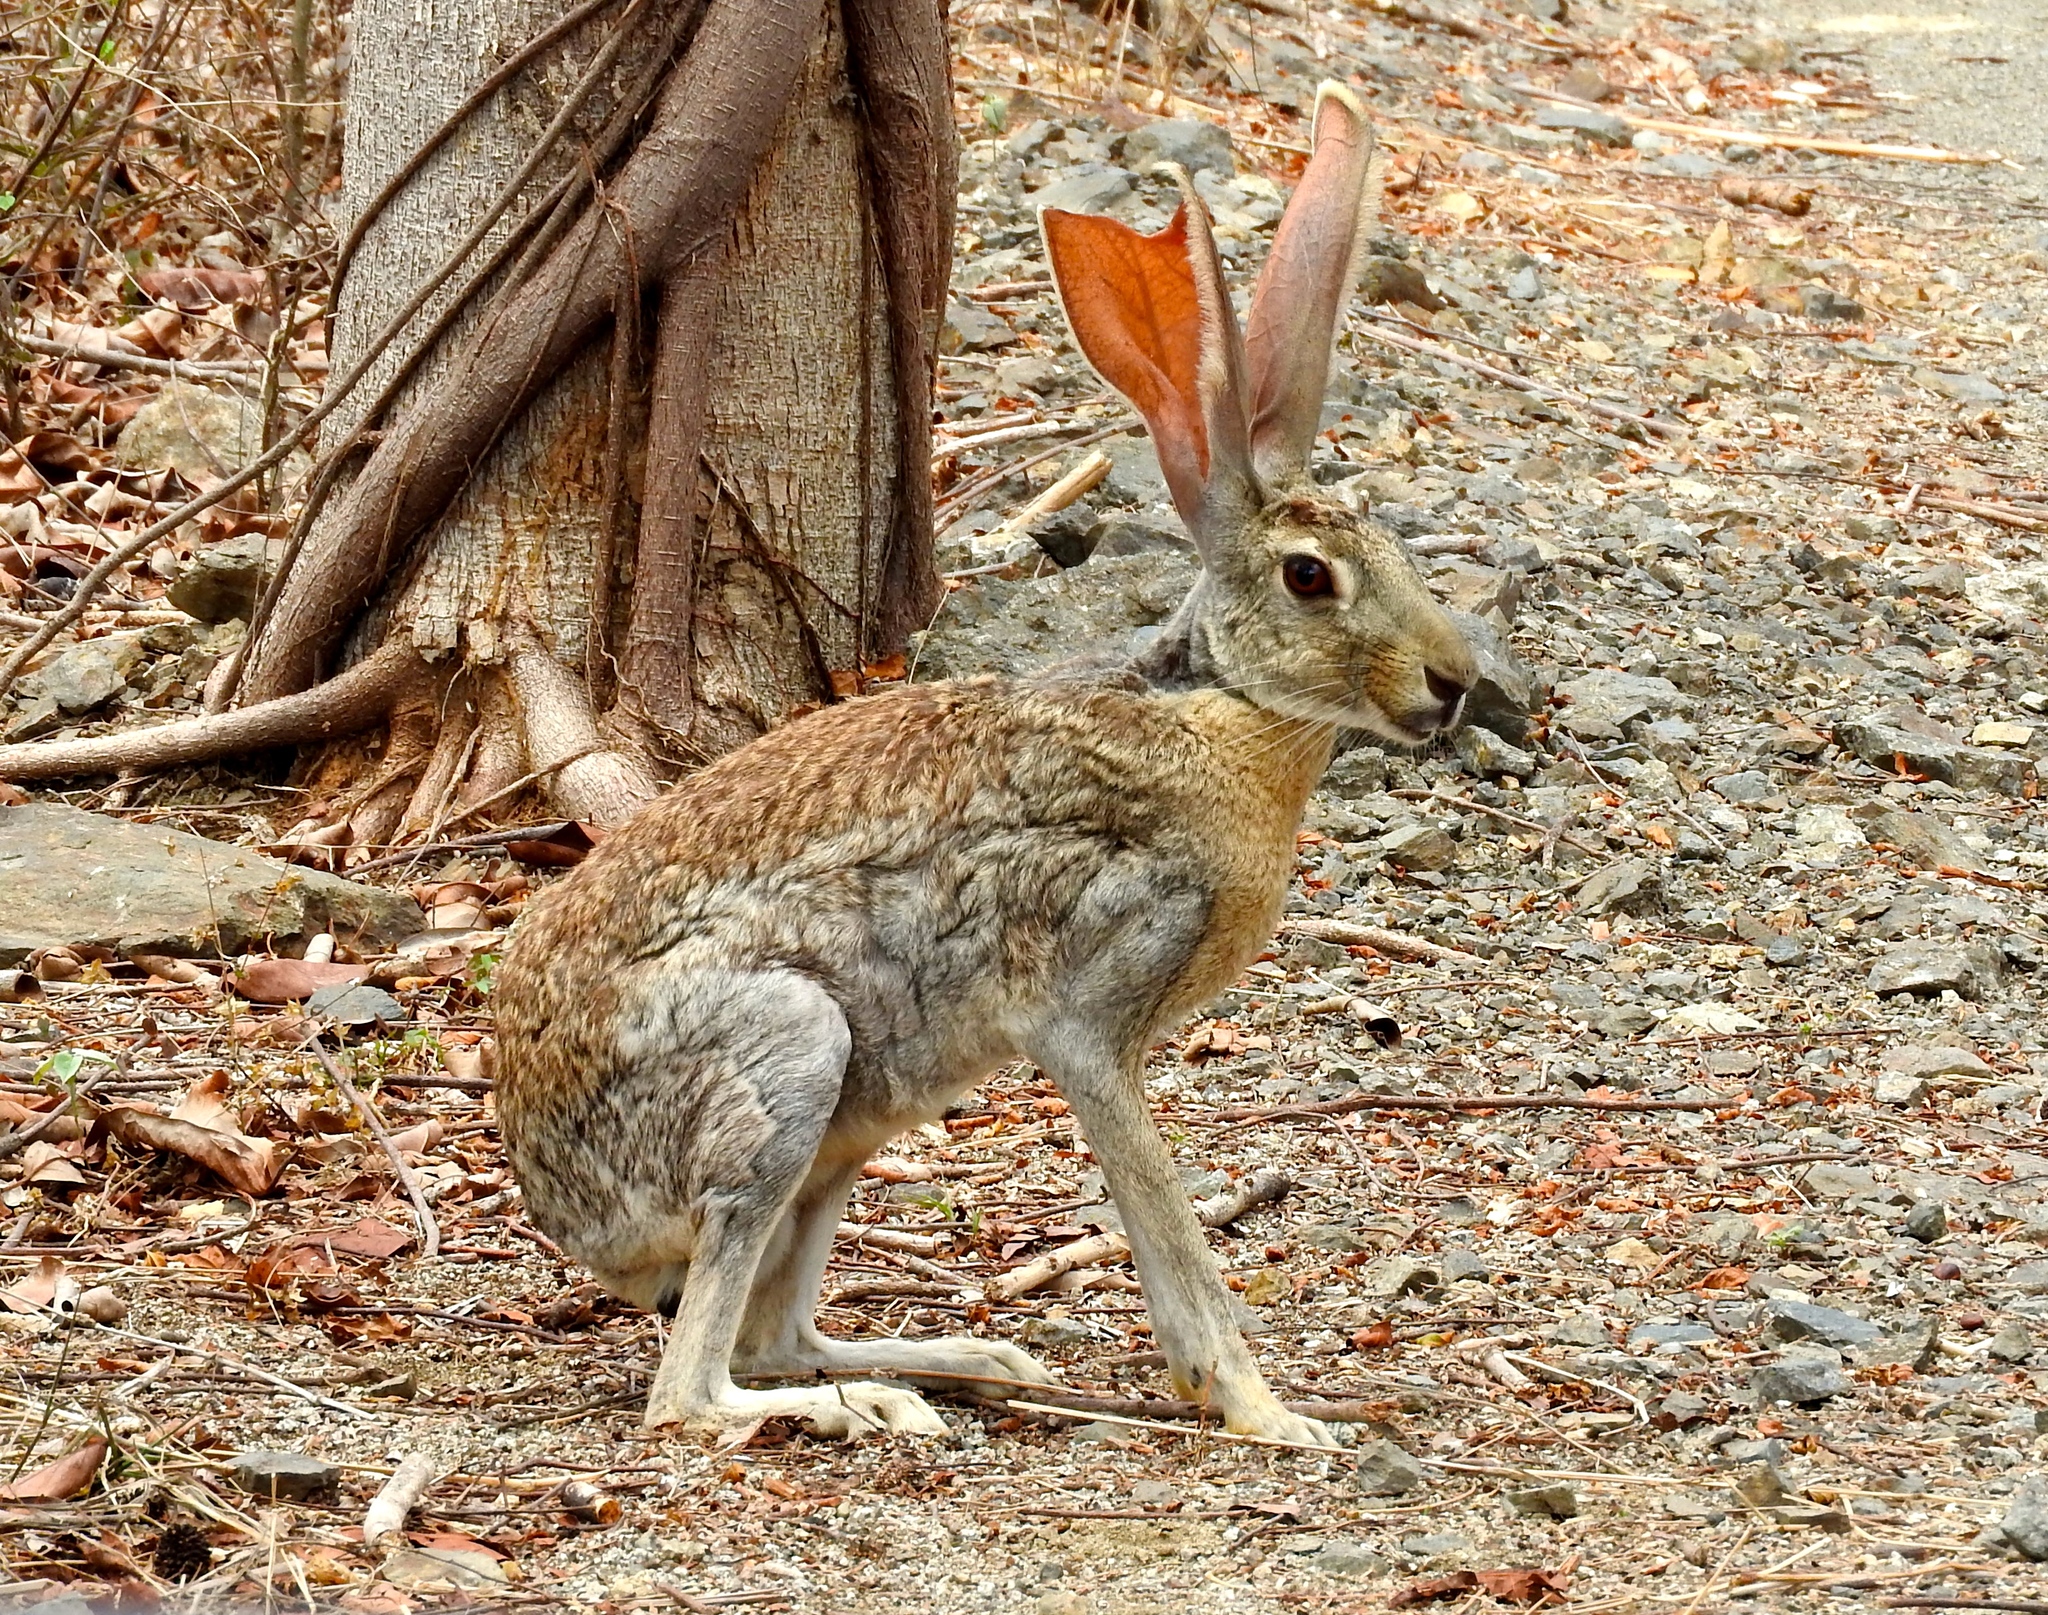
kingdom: Animalia
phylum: Chordata
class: Mammalia
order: Lagomorpha
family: Leporidae
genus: Lepus
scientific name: Lepus alleni
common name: Antelope jackrabbit
